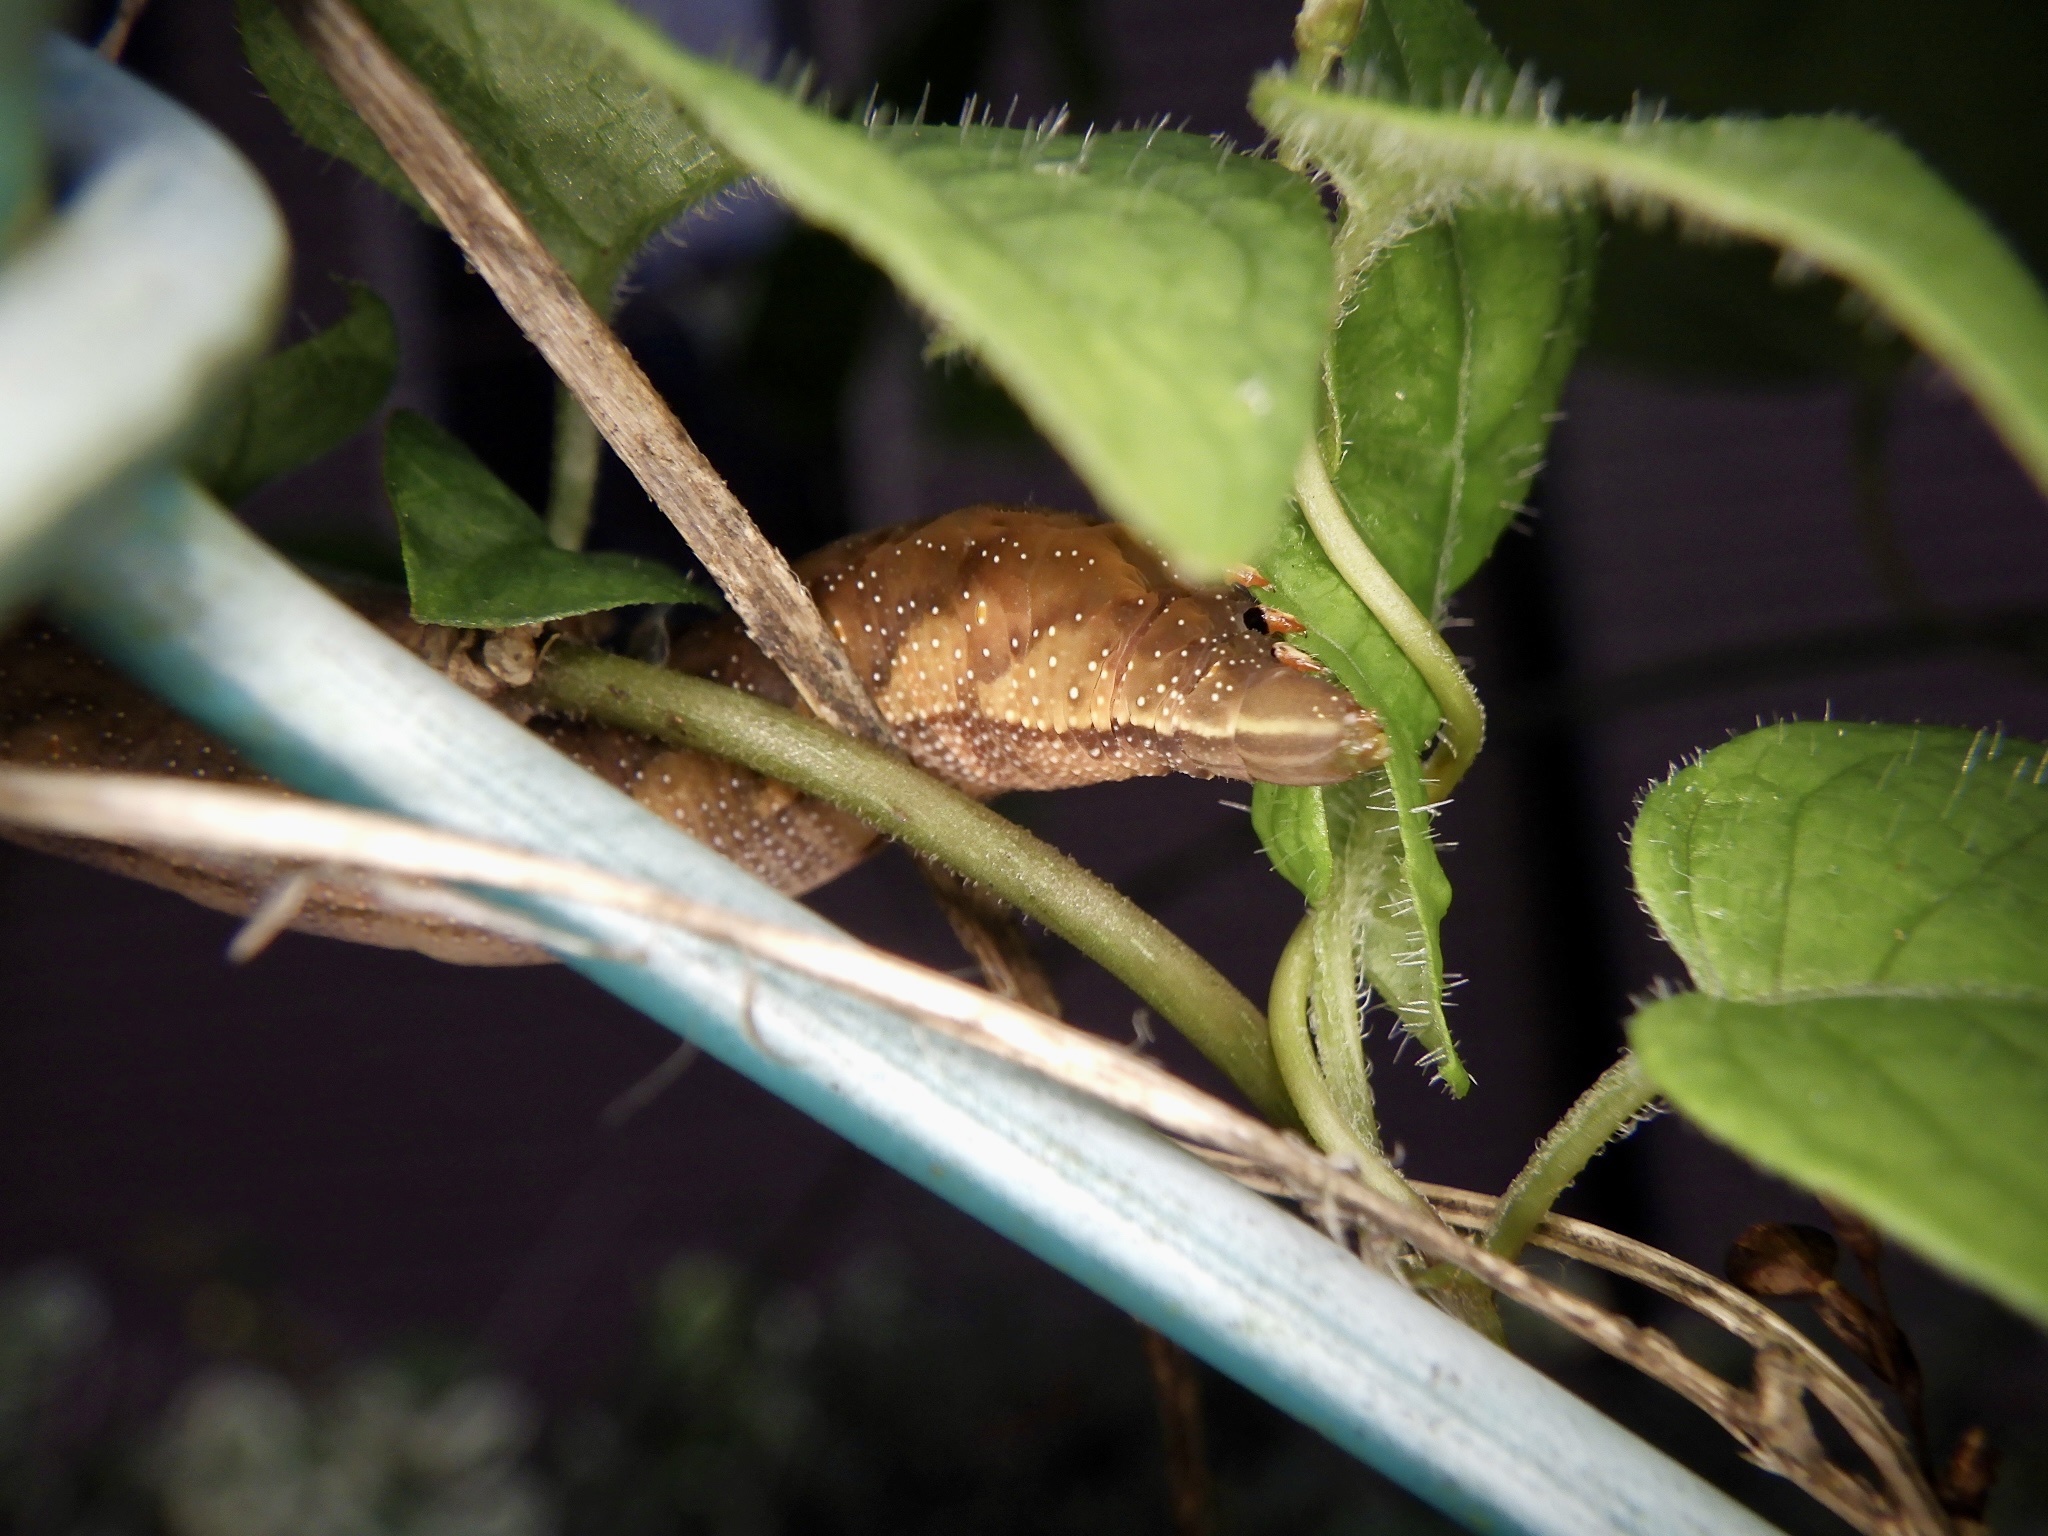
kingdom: Animalia
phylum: Arthropoda
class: Insecta
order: Lepidoptera
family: Sphingidae
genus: Macroglossum
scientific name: Macroglossum pyrrhosticta
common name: Hummingbird hawk moth
